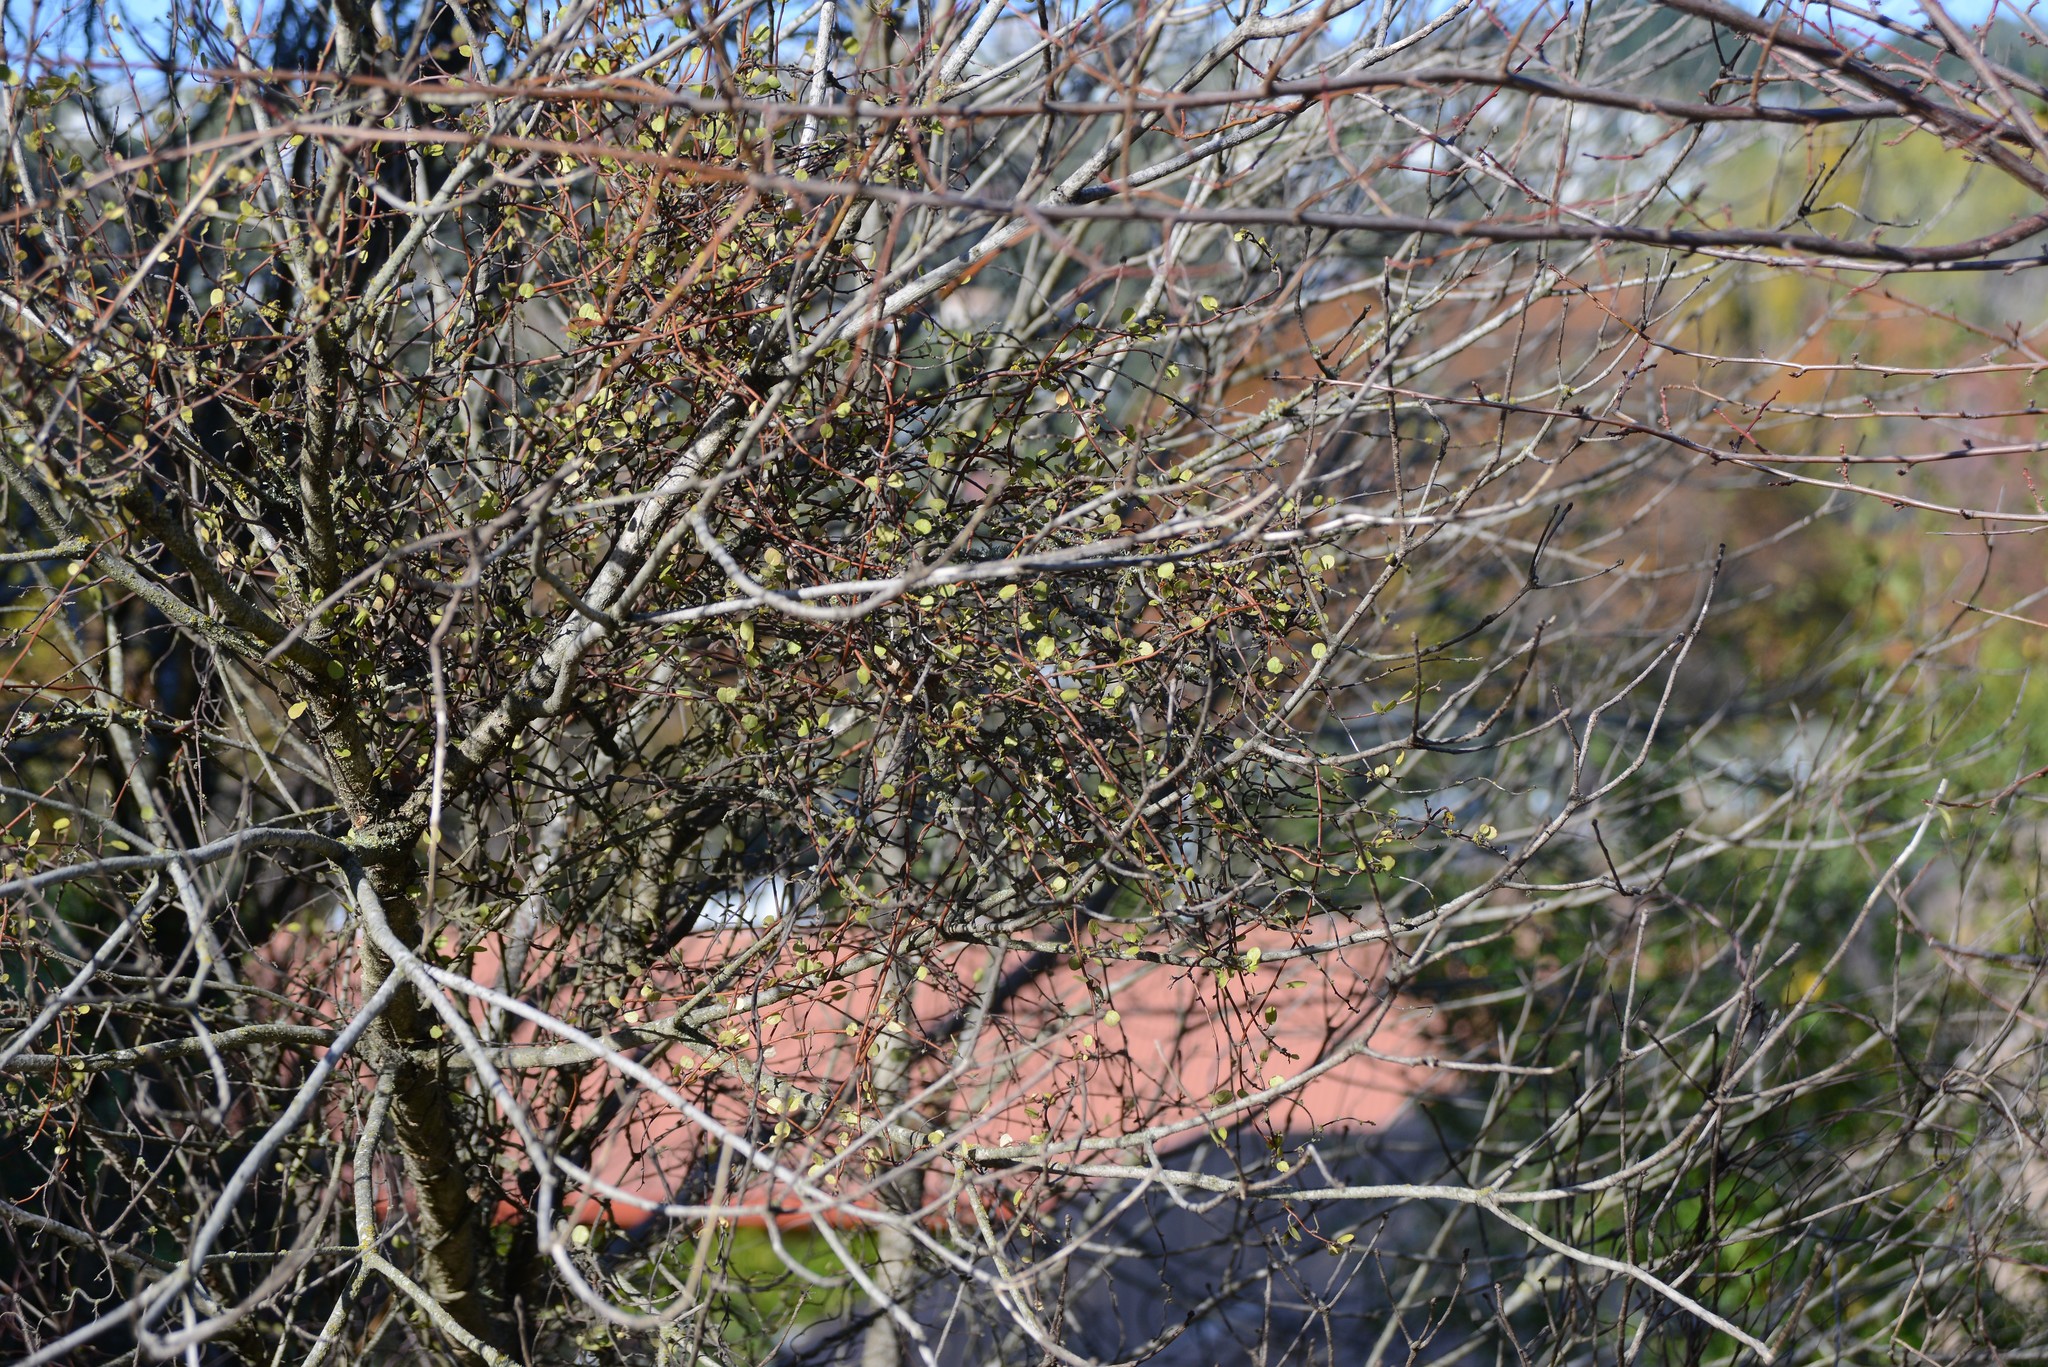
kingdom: Plantae
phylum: Tracheophyta
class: Magnoliopsida
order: Caryophyllales
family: Polygonaceae
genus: Muehlenbeckia
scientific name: Muehlenbeckia complexa
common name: Wireplant
